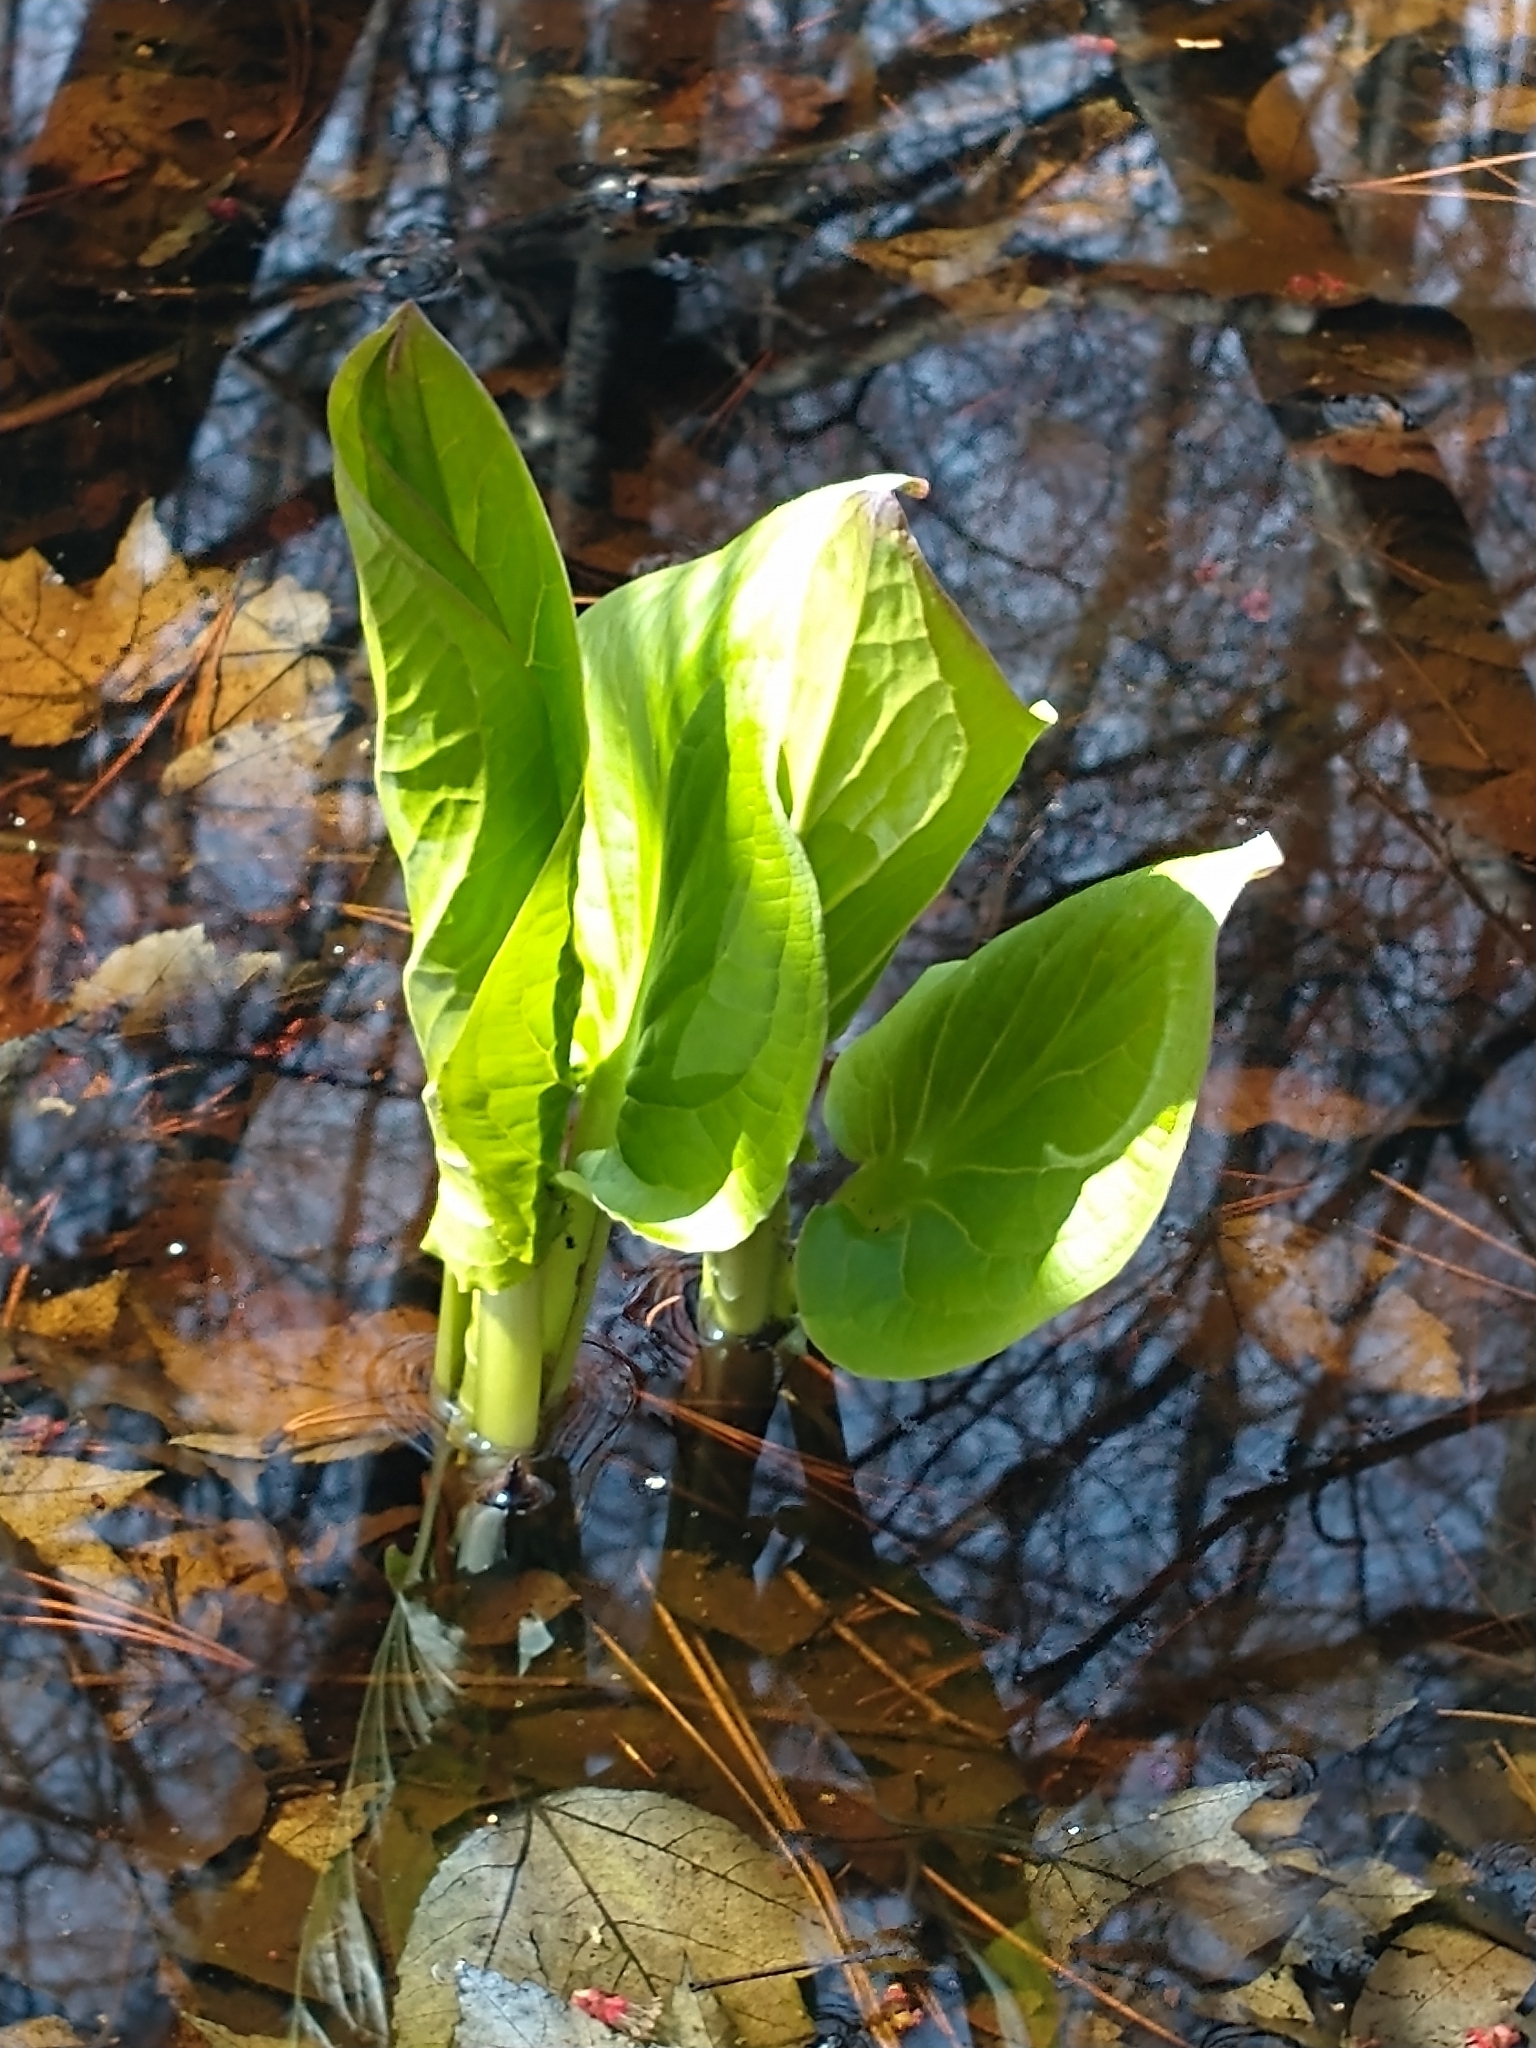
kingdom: Plantae
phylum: Tracheophyta
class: Liliopsida
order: Alismatales
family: Araceae
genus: Symplocarpus
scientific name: Symplocarpus foetidus
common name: Eastern skunk cabbage
